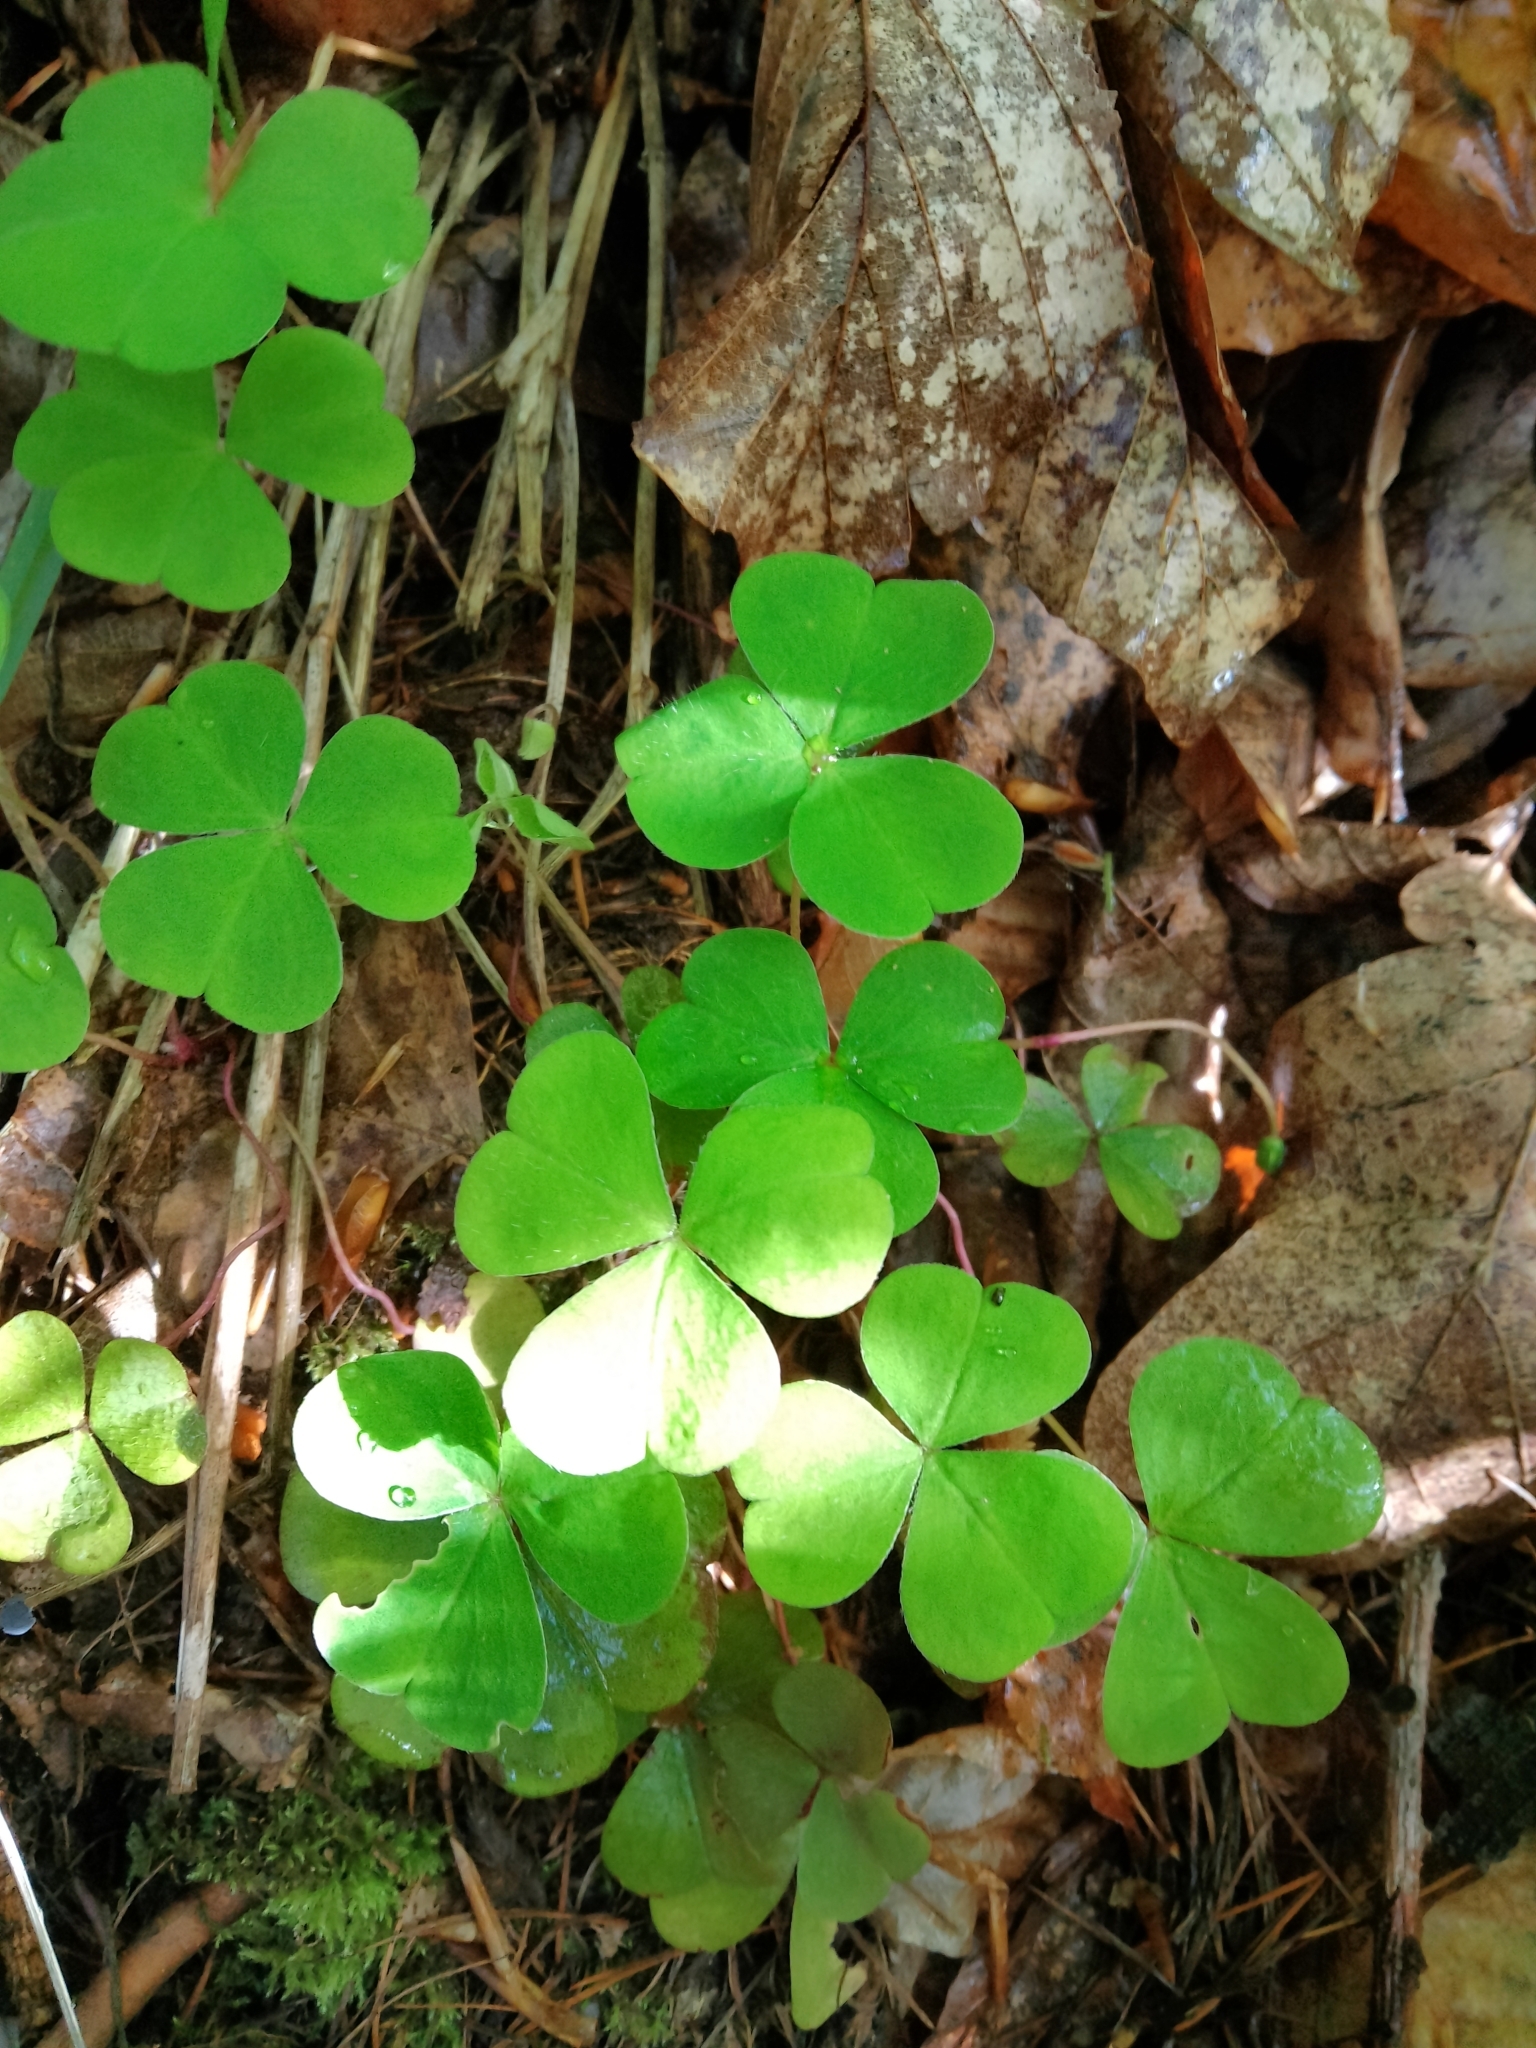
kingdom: Plantae
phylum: Tracheophyta
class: Magnoliopsida
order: Oxalidales
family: Oxalidaceae
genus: Oxalis
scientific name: Oxalis acetosella
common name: Wood-sorrel
